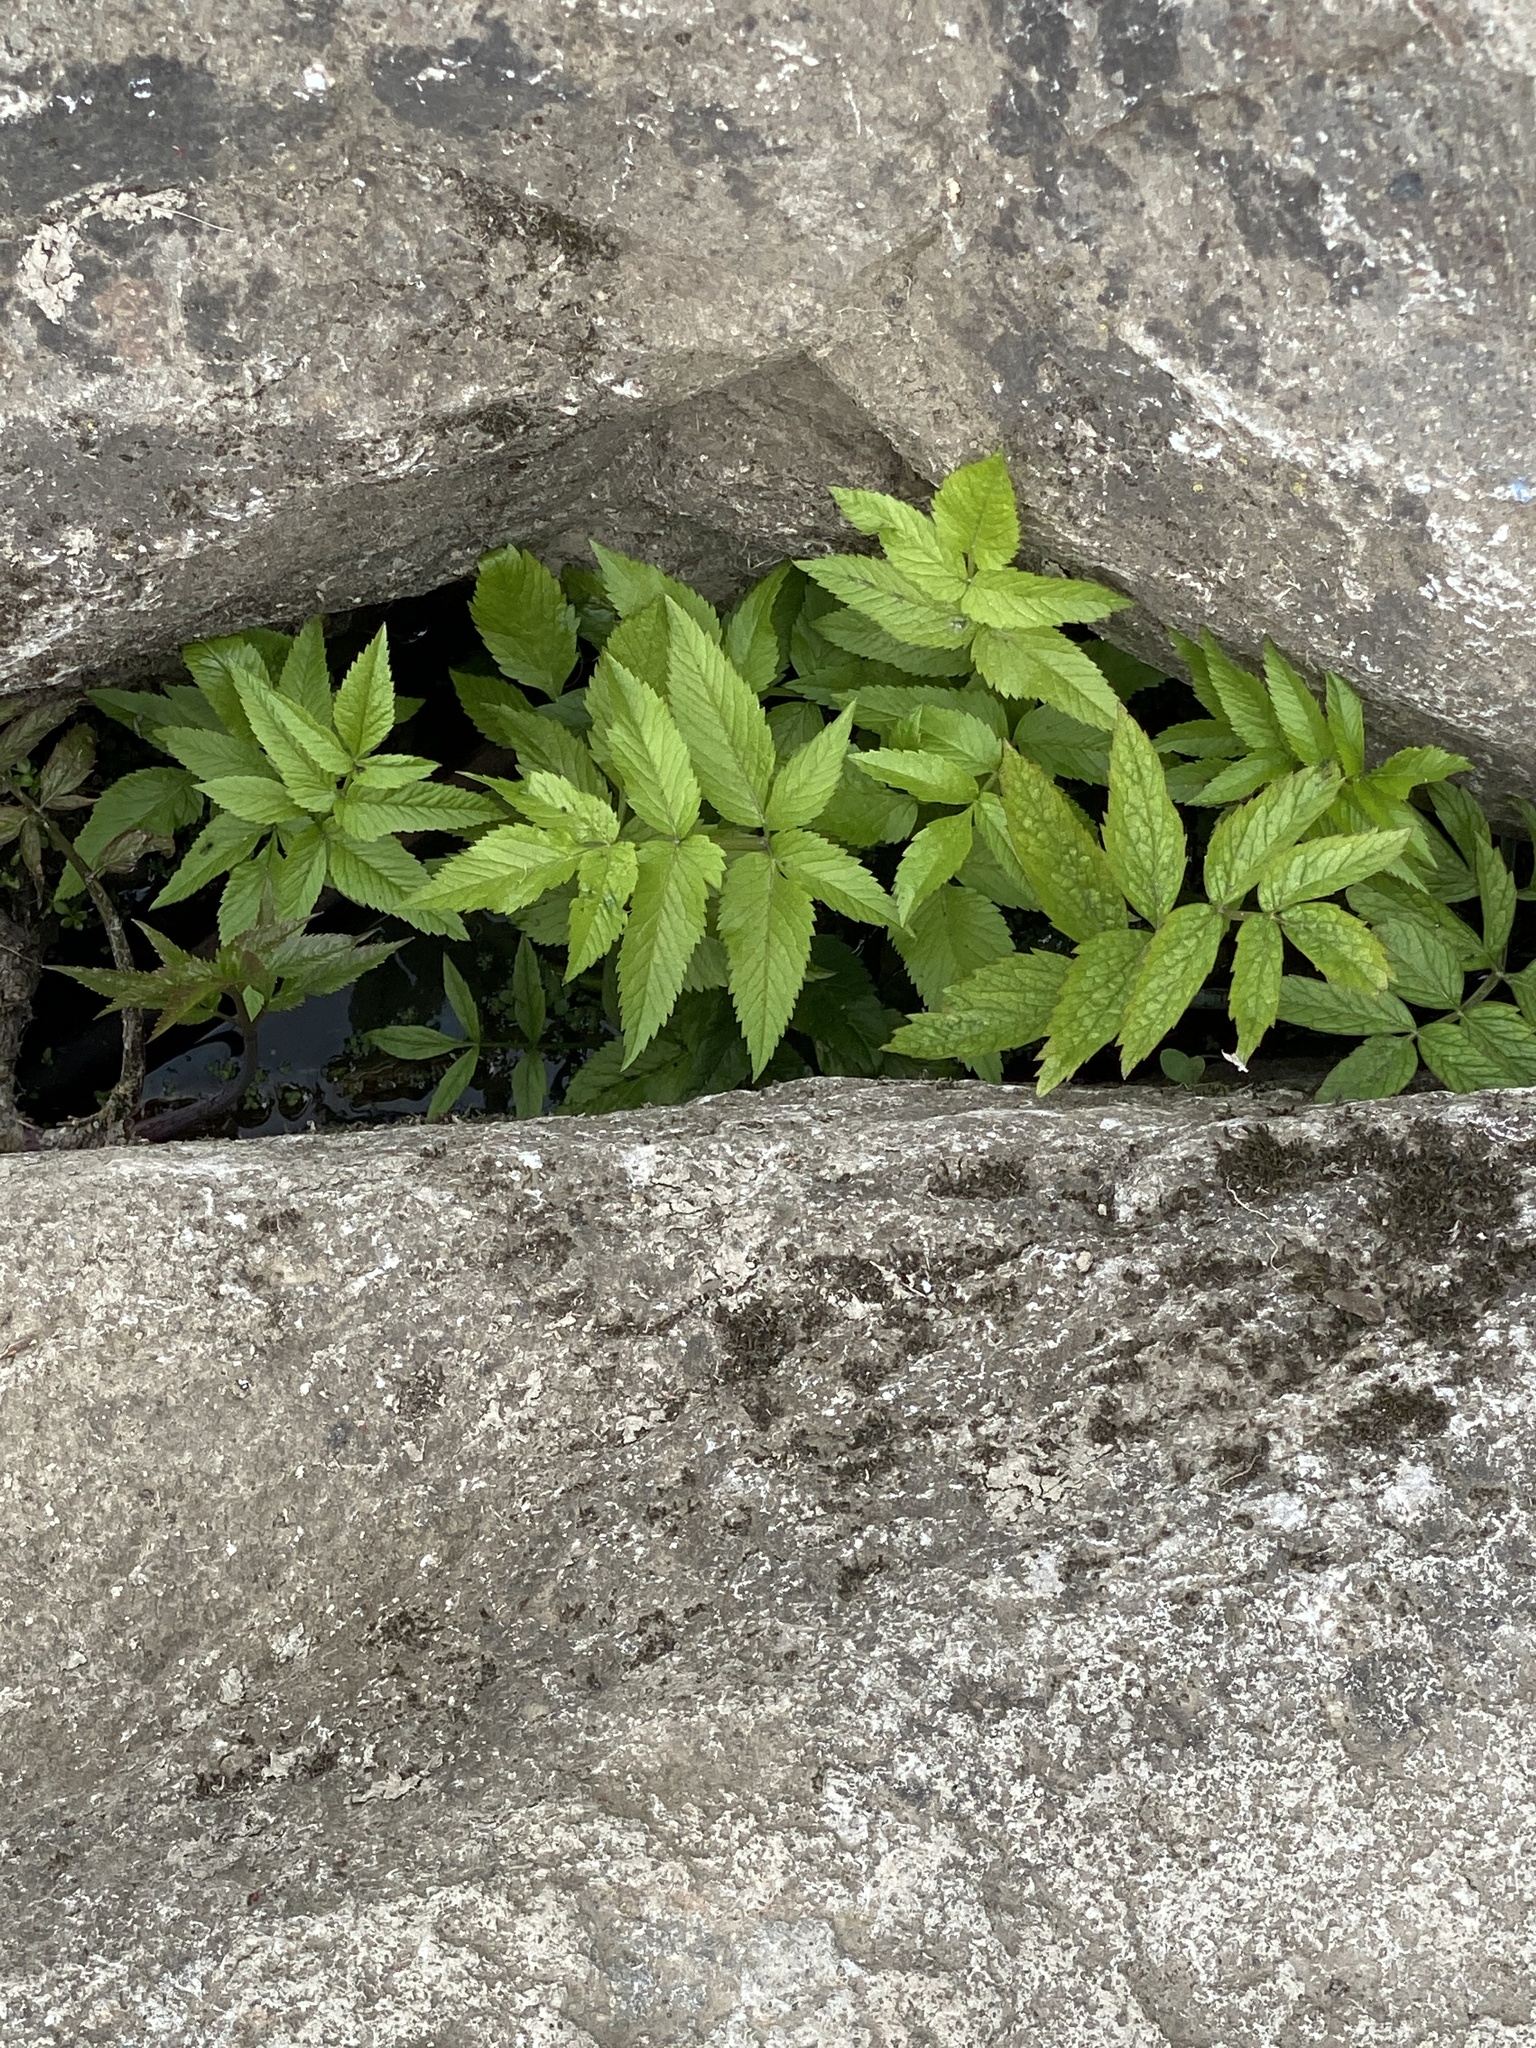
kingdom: Plantae
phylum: Tracheophyta
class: Magnoliopsida
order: Apiales
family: Apiaceae
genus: Cicuta
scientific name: Cicuta douglasii
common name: Western water-hemlock
